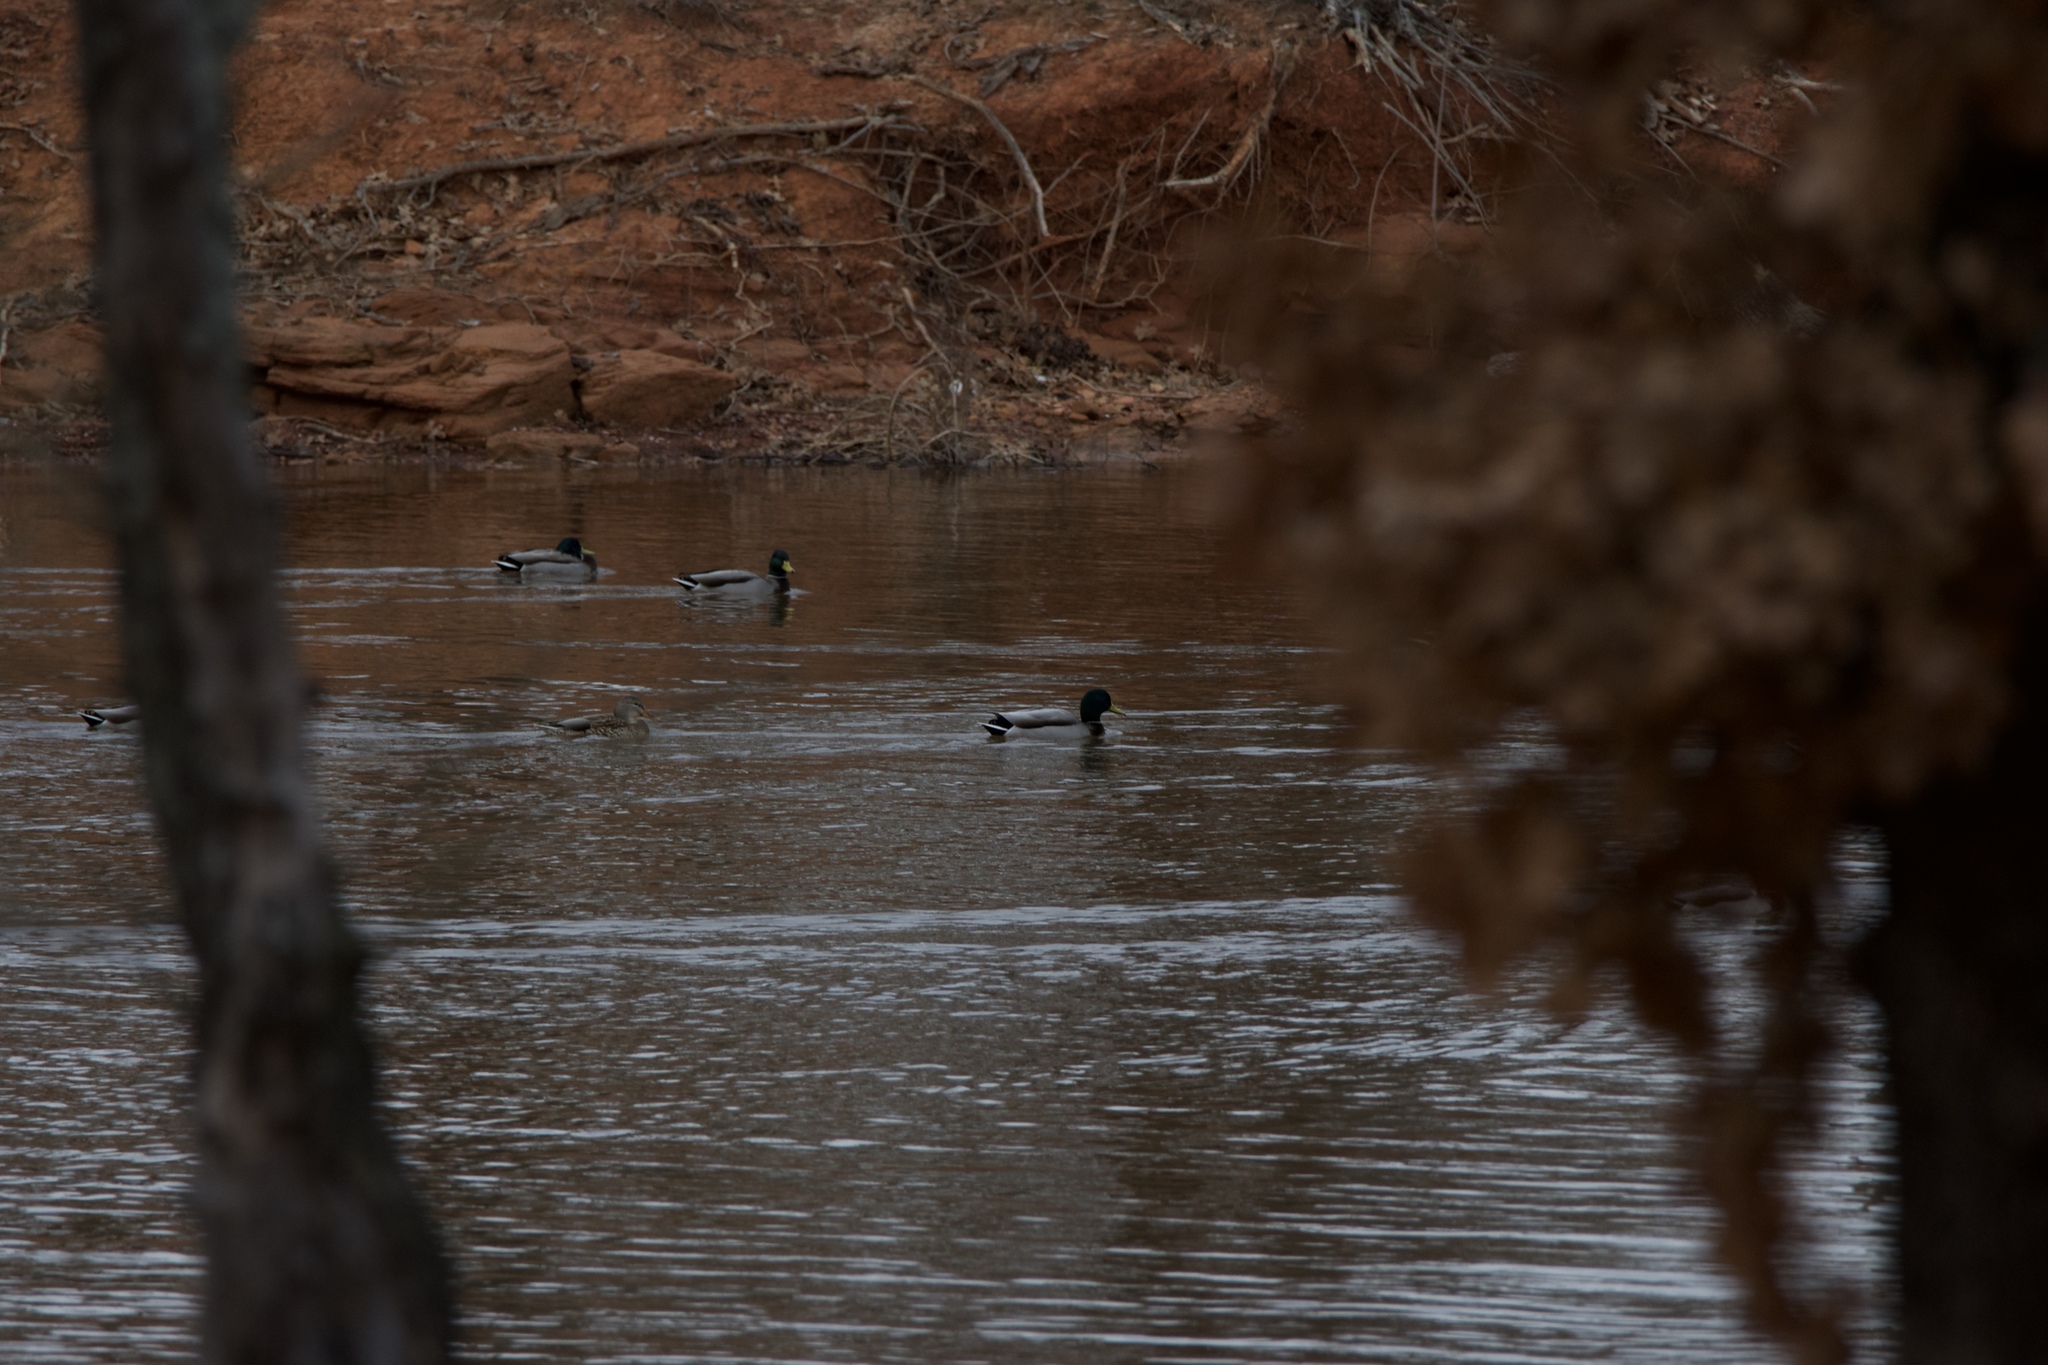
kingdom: Animalia
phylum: Chordata
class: Aves
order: Anseriformes
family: Anatidae
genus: Anas
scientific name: Anas platyrhynchos
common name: Mallard
